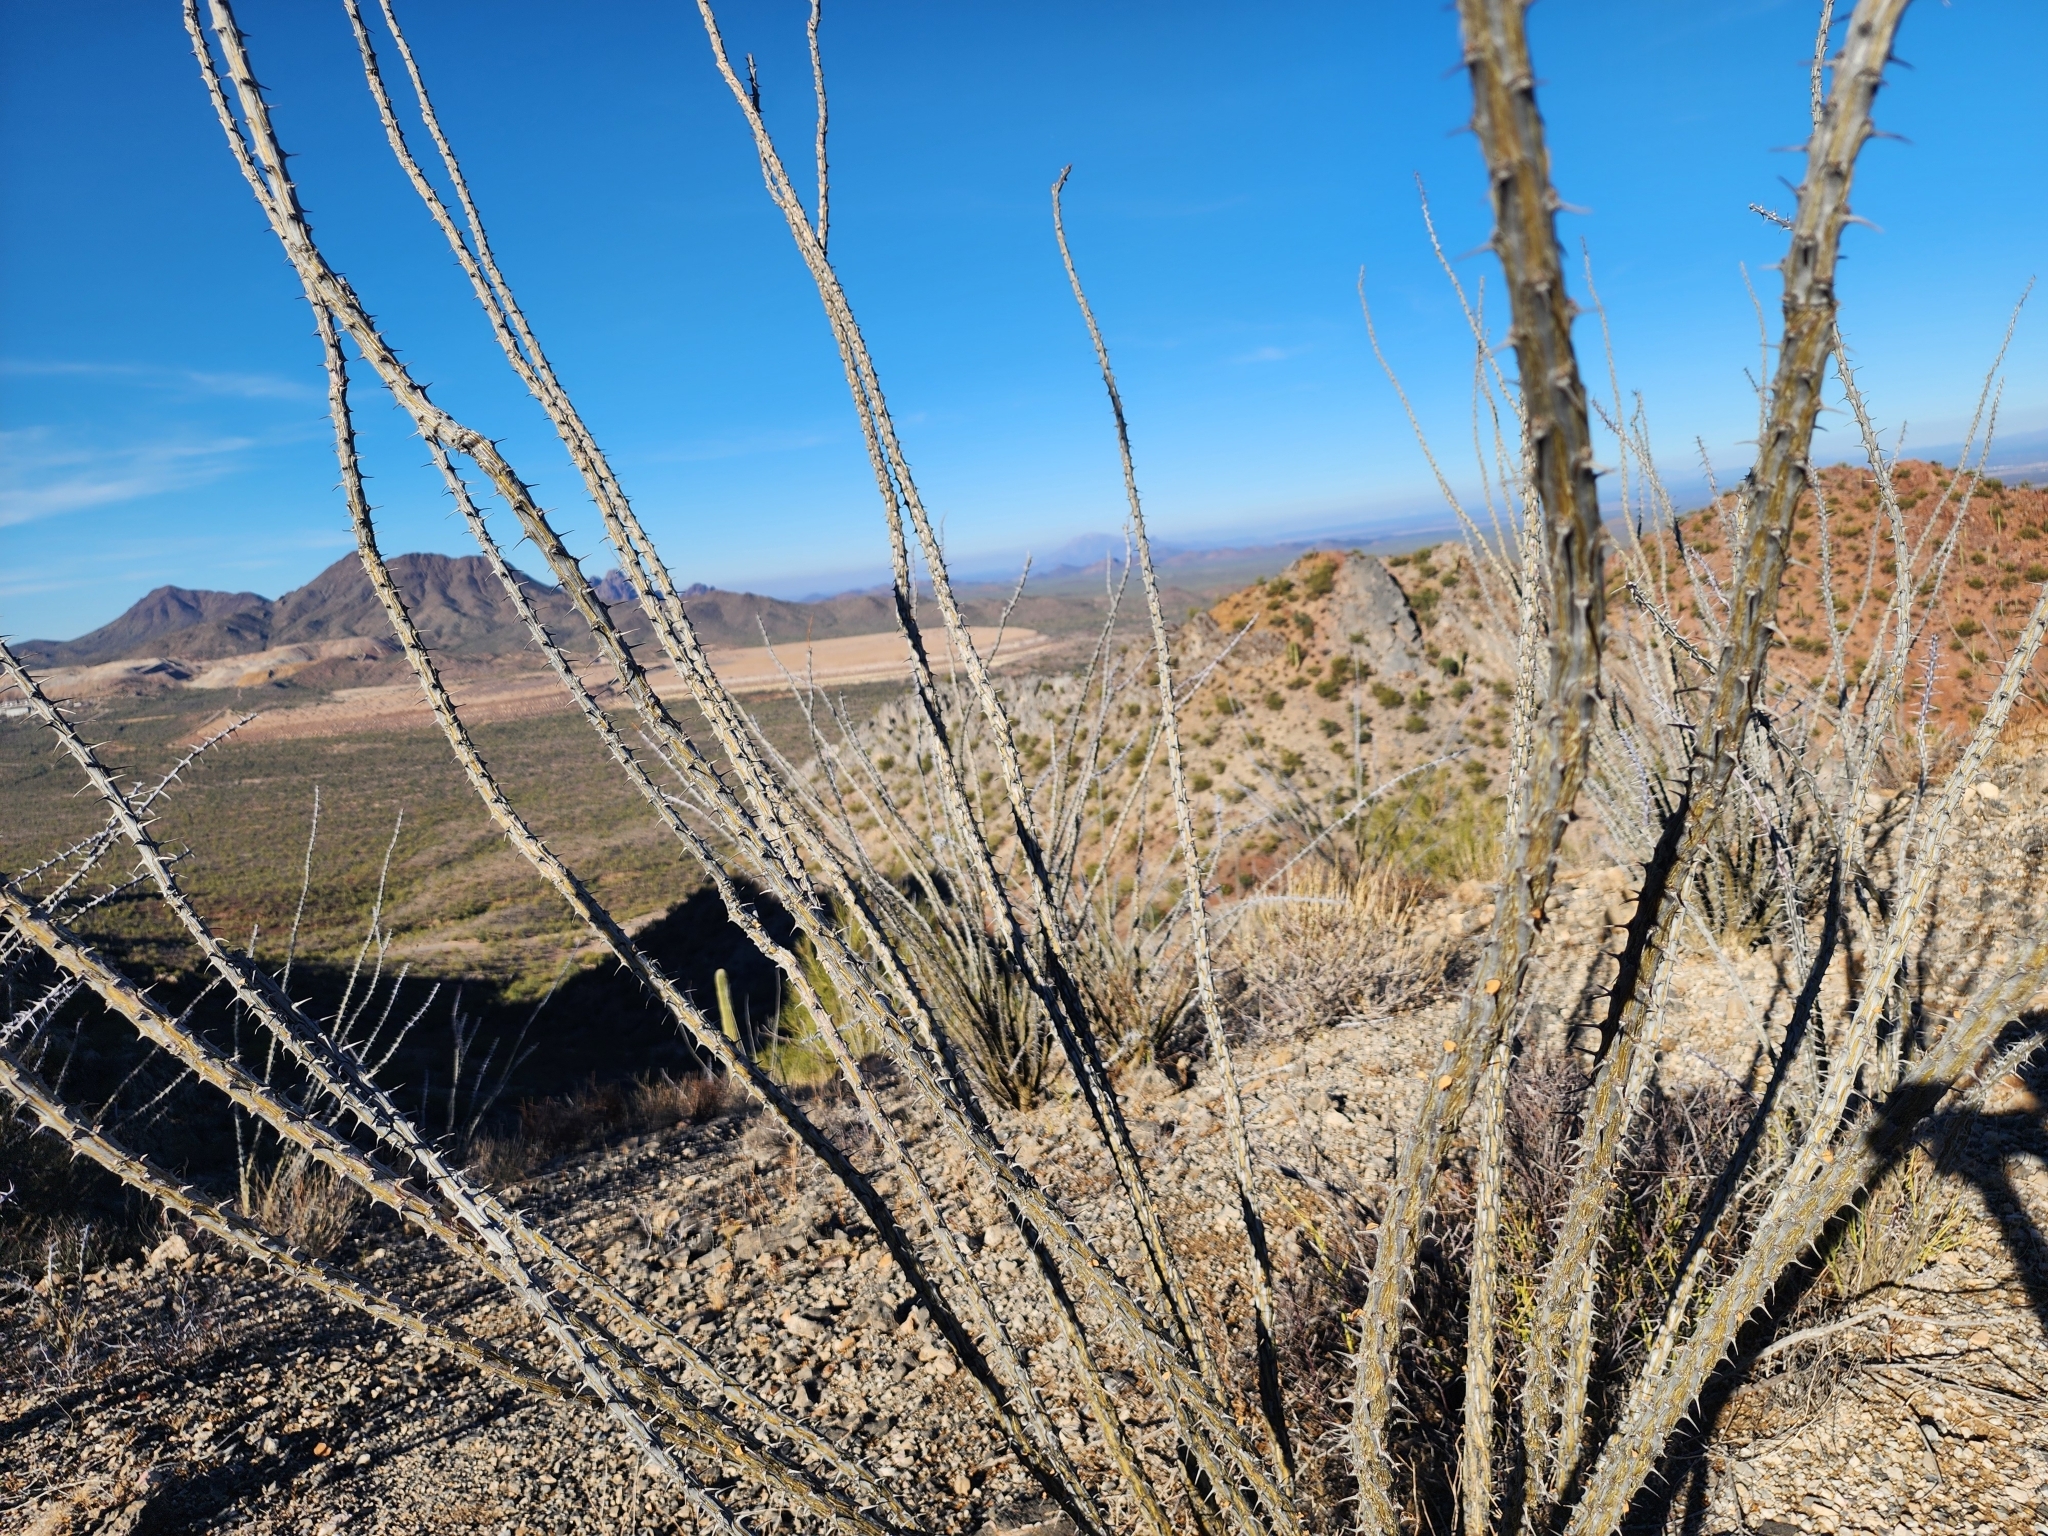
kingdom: Plantae
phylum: Tracheophyta
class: Magnoliopsida
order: Ericales
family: Fouquieriaceae
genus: Fouquieria
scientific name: Fouquieria splendens
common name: Vine-cactus
